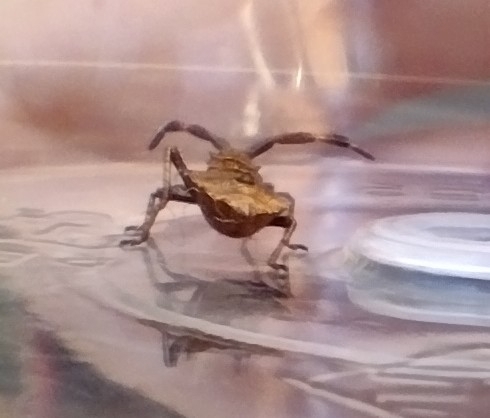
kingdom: Animalia
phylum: Arthropoda
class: Insecta
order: Hemiptera
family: Coreidae
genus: Coreus
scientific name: Coreus marginatus
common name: Dock bug
